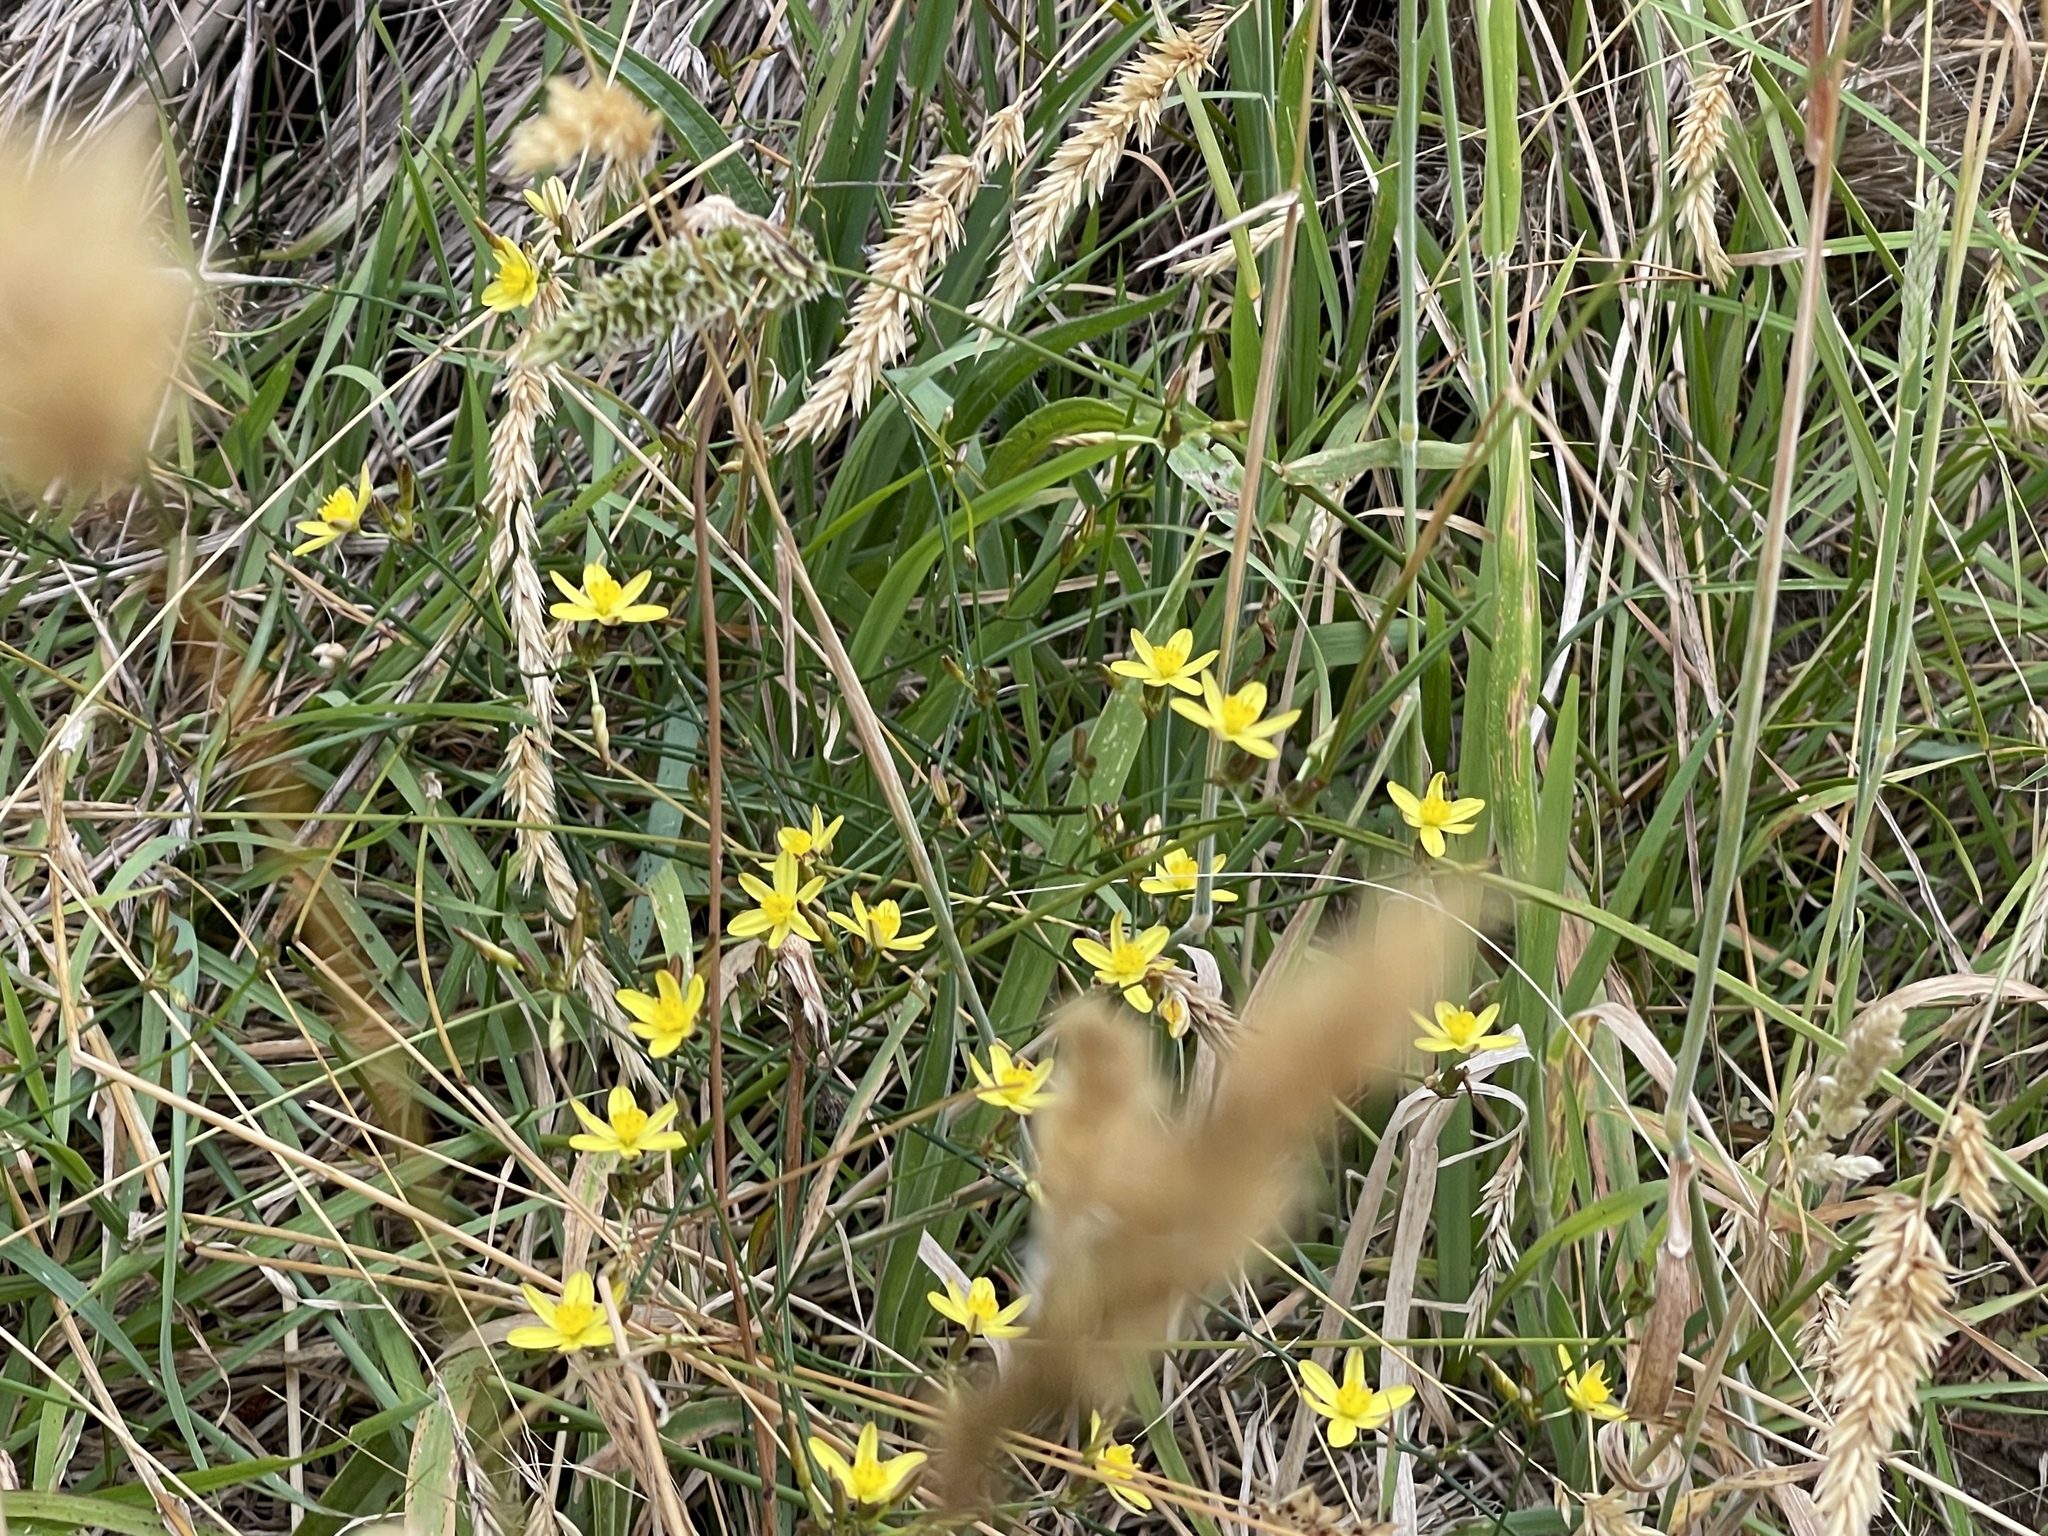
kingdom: Plantae
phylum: Tracheophyta
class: Liliopsida
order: Asparagales
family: Asphodelaceae
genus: Tricoryne
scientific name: Tricoryne elatior
